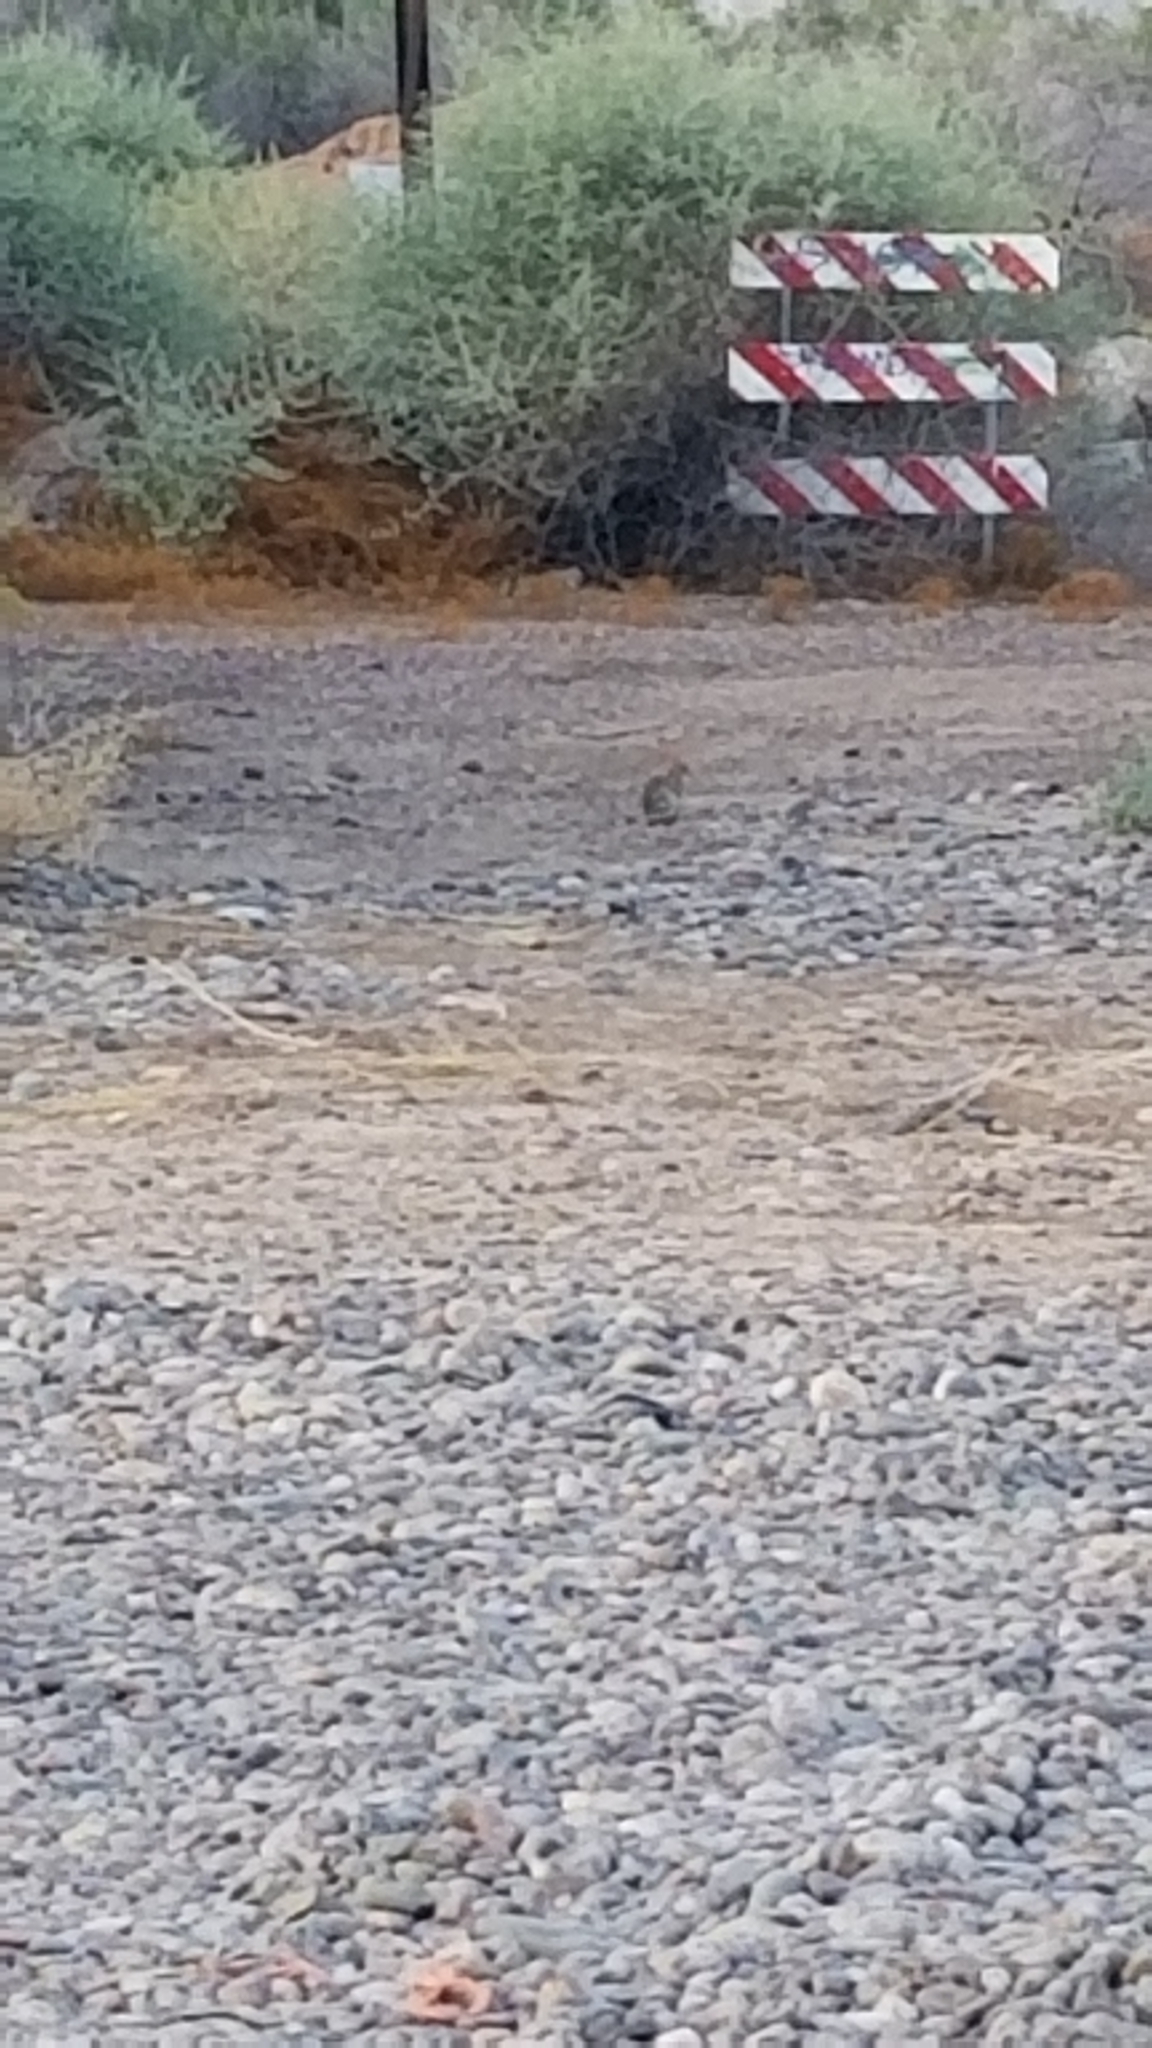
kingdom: Animalia
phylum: Chordata
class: Mammalia
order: Lagomorpha
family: Leporidae
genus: Sylvilagus
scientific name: Sylvilagus audubonii
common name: Desert cottontail
